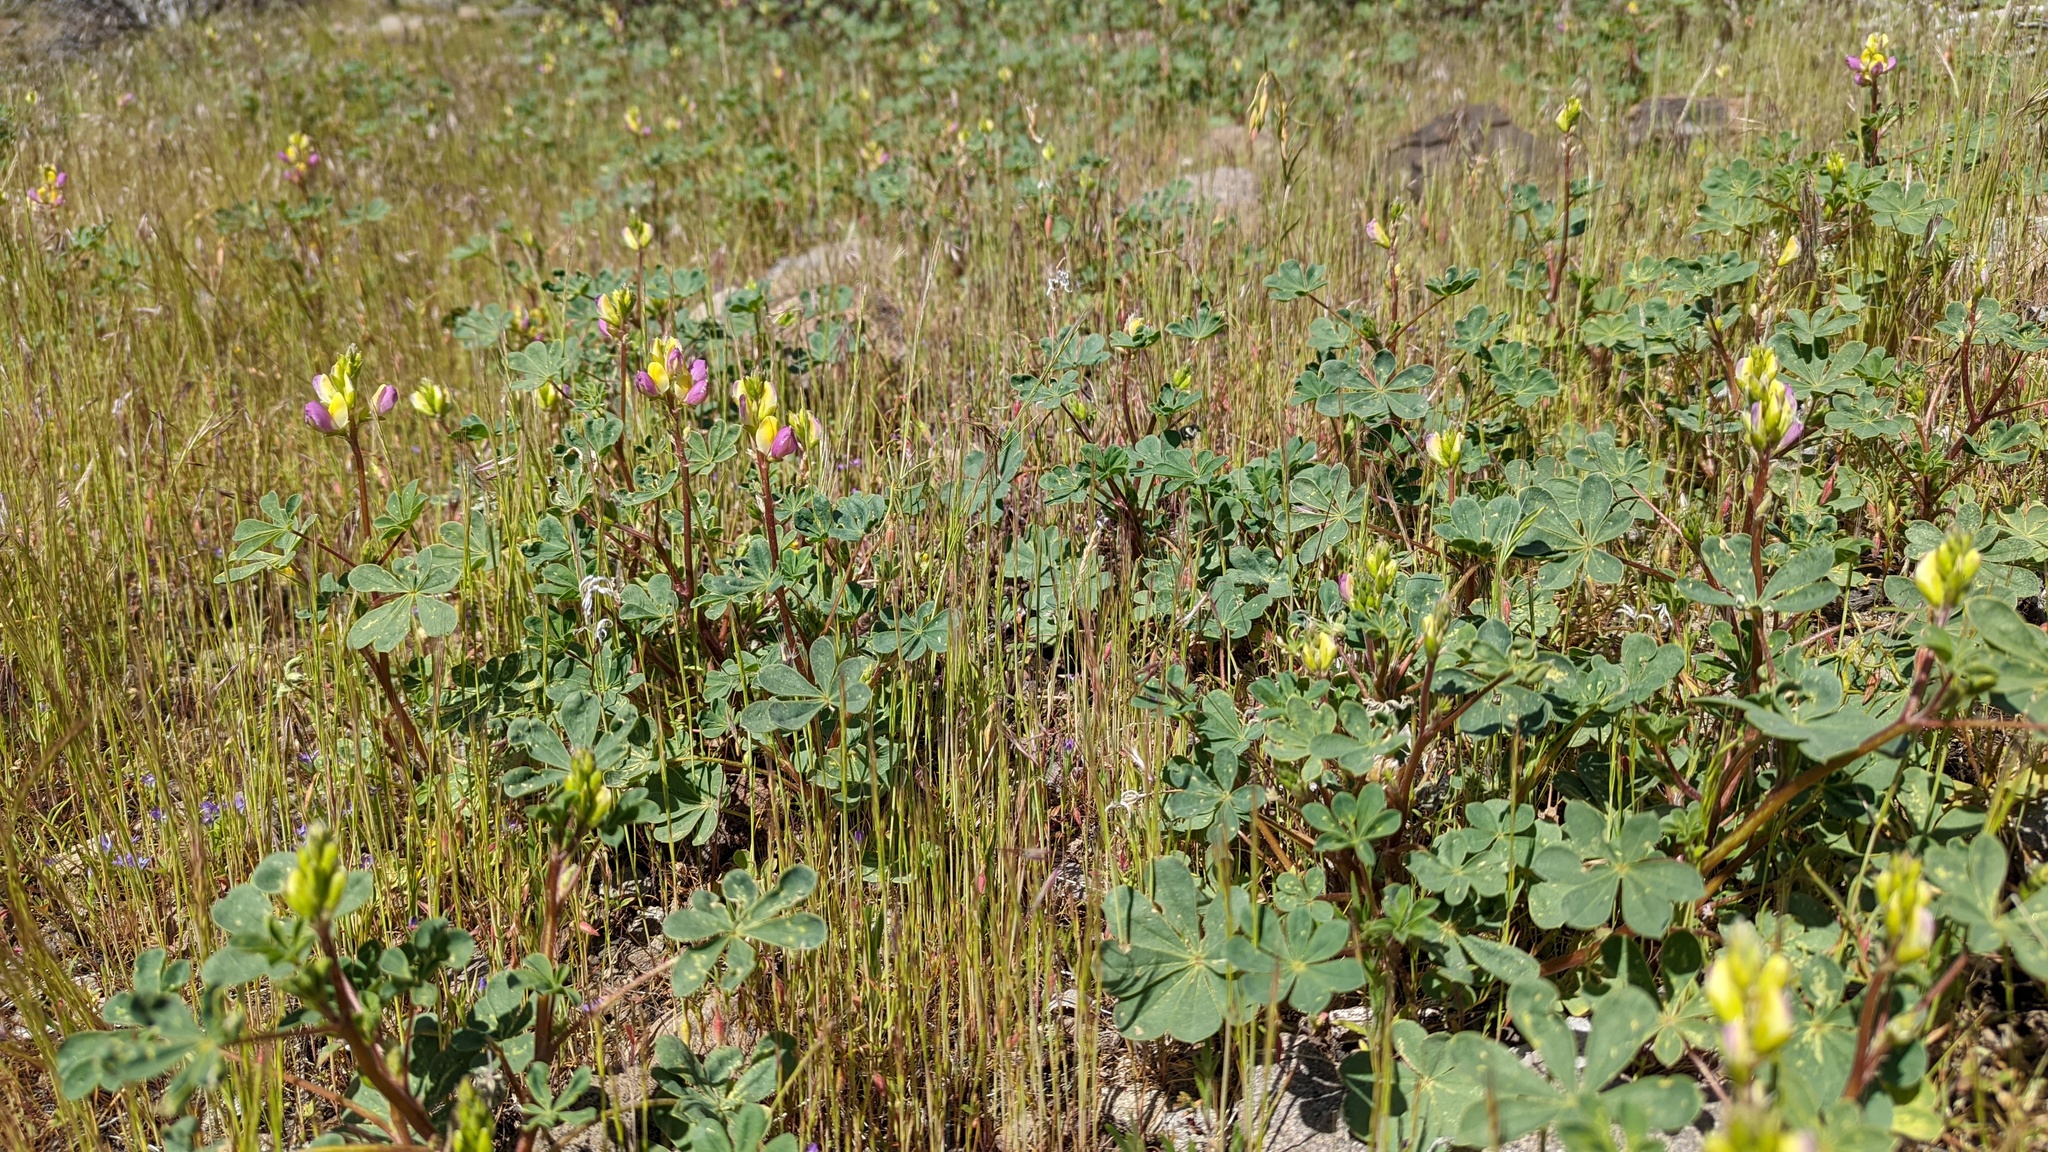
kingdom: Plantae
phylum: Tracheophyta
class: Magnoliopsida
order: Fabales
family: Fabaceae
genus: Lupinus
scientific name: Lupinus stiversii
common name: Harlequin lupine
